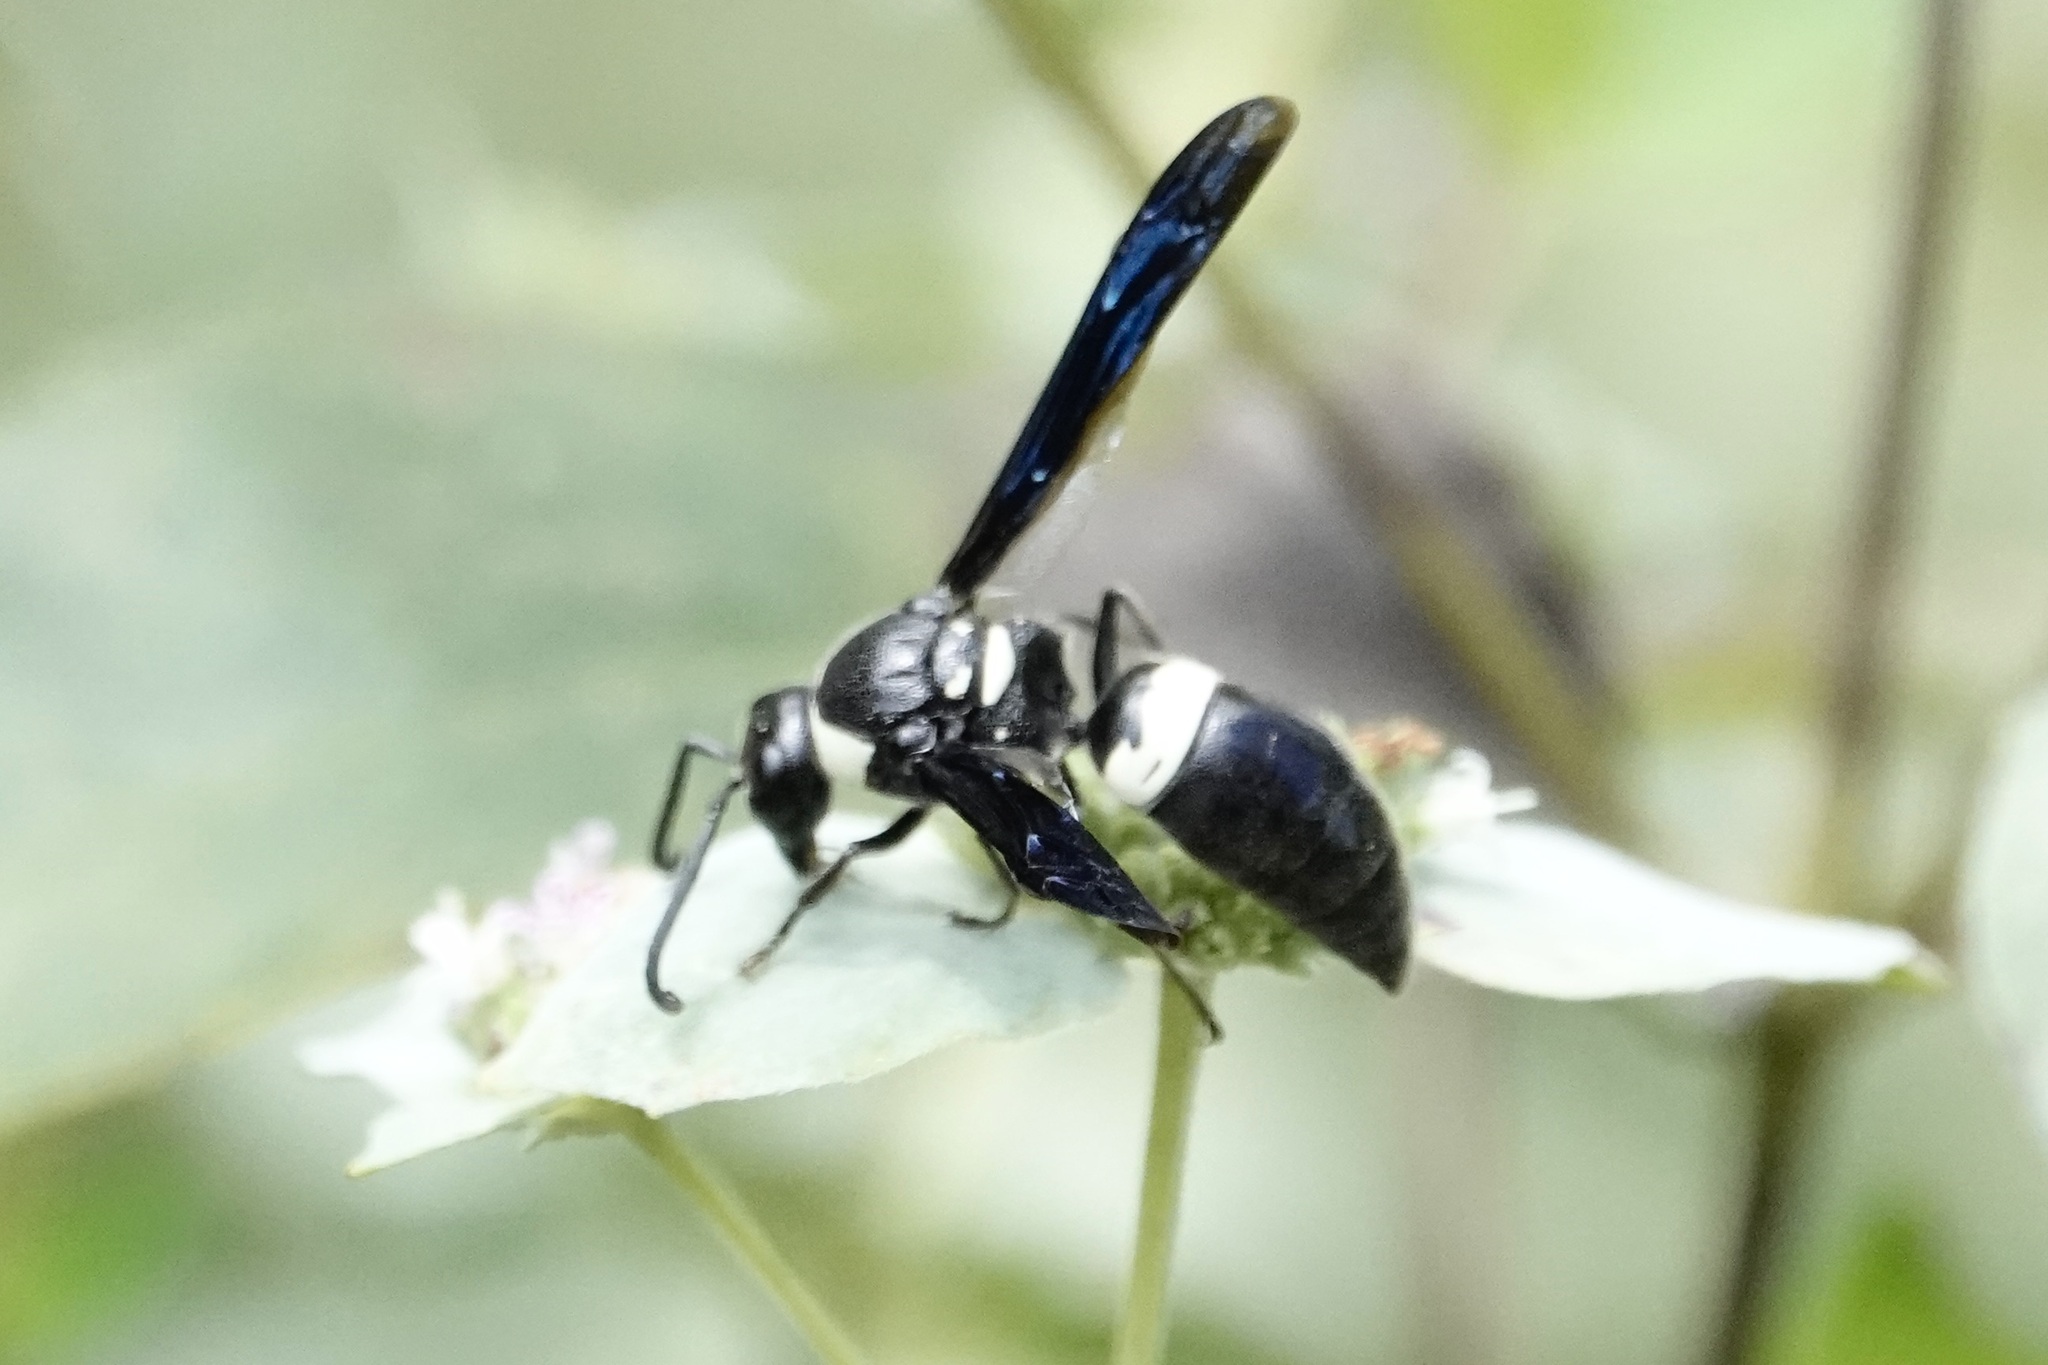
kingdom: Animalia
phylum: Arthropoda
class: Insecta
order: Hymenoptera
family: Eumenidae
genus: Monobia
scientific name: Monobia quadridens
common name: Four-toothed mason wasp
